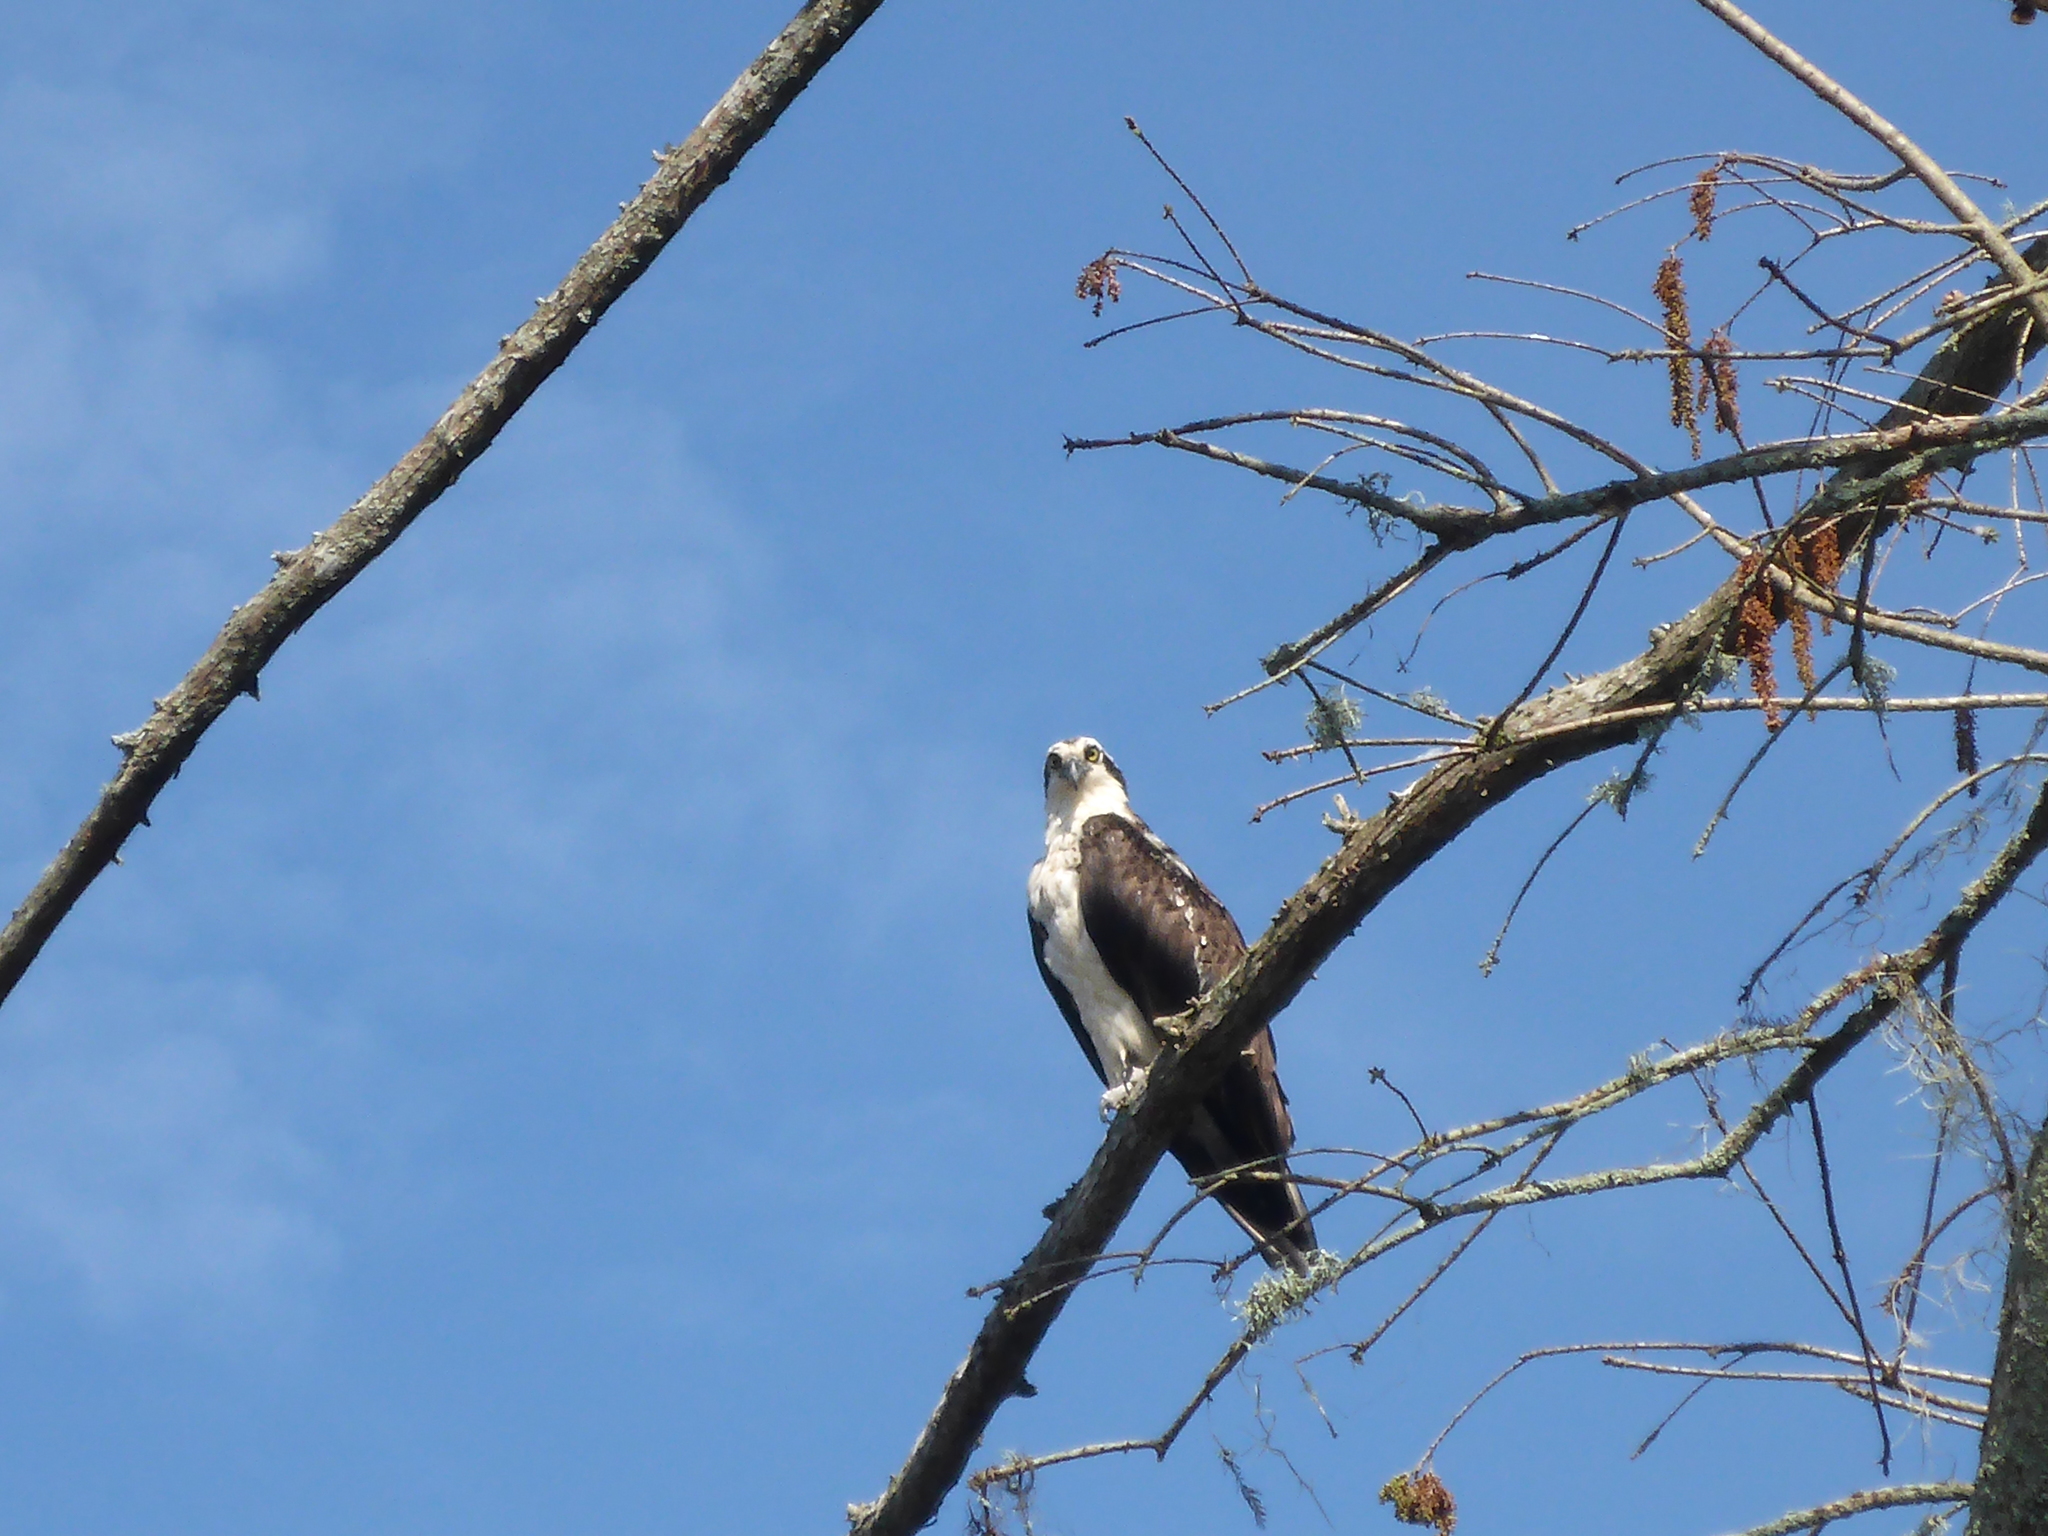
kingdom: Animalia
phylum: Chordata
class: Aves
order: Accipitriformes
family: Pandionidae
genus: Pandion
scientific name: Pandion haliaetus
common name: Osprey
